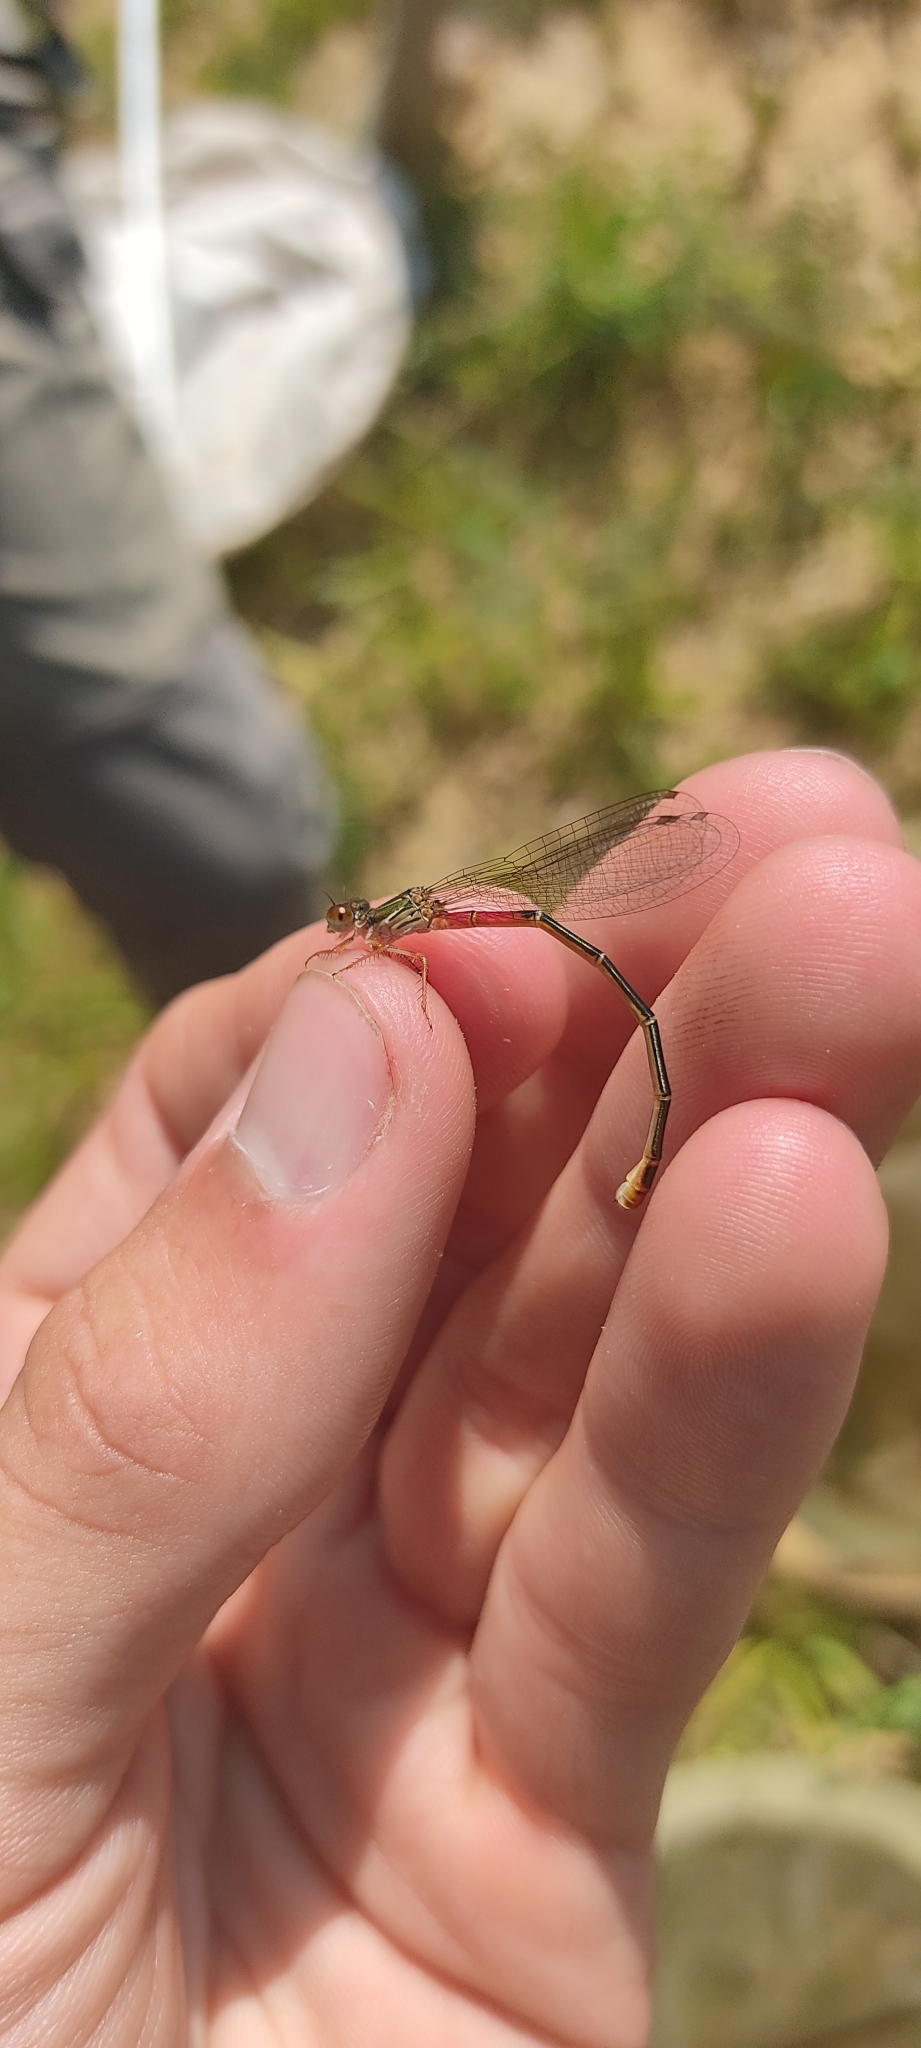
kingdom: Animalia
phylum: Arthropoda
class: Insecta
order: Odonata
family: Coenagrionidae
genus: Ceriagrion
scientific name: Ceriagrion tenellum
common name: Small red damselfly
